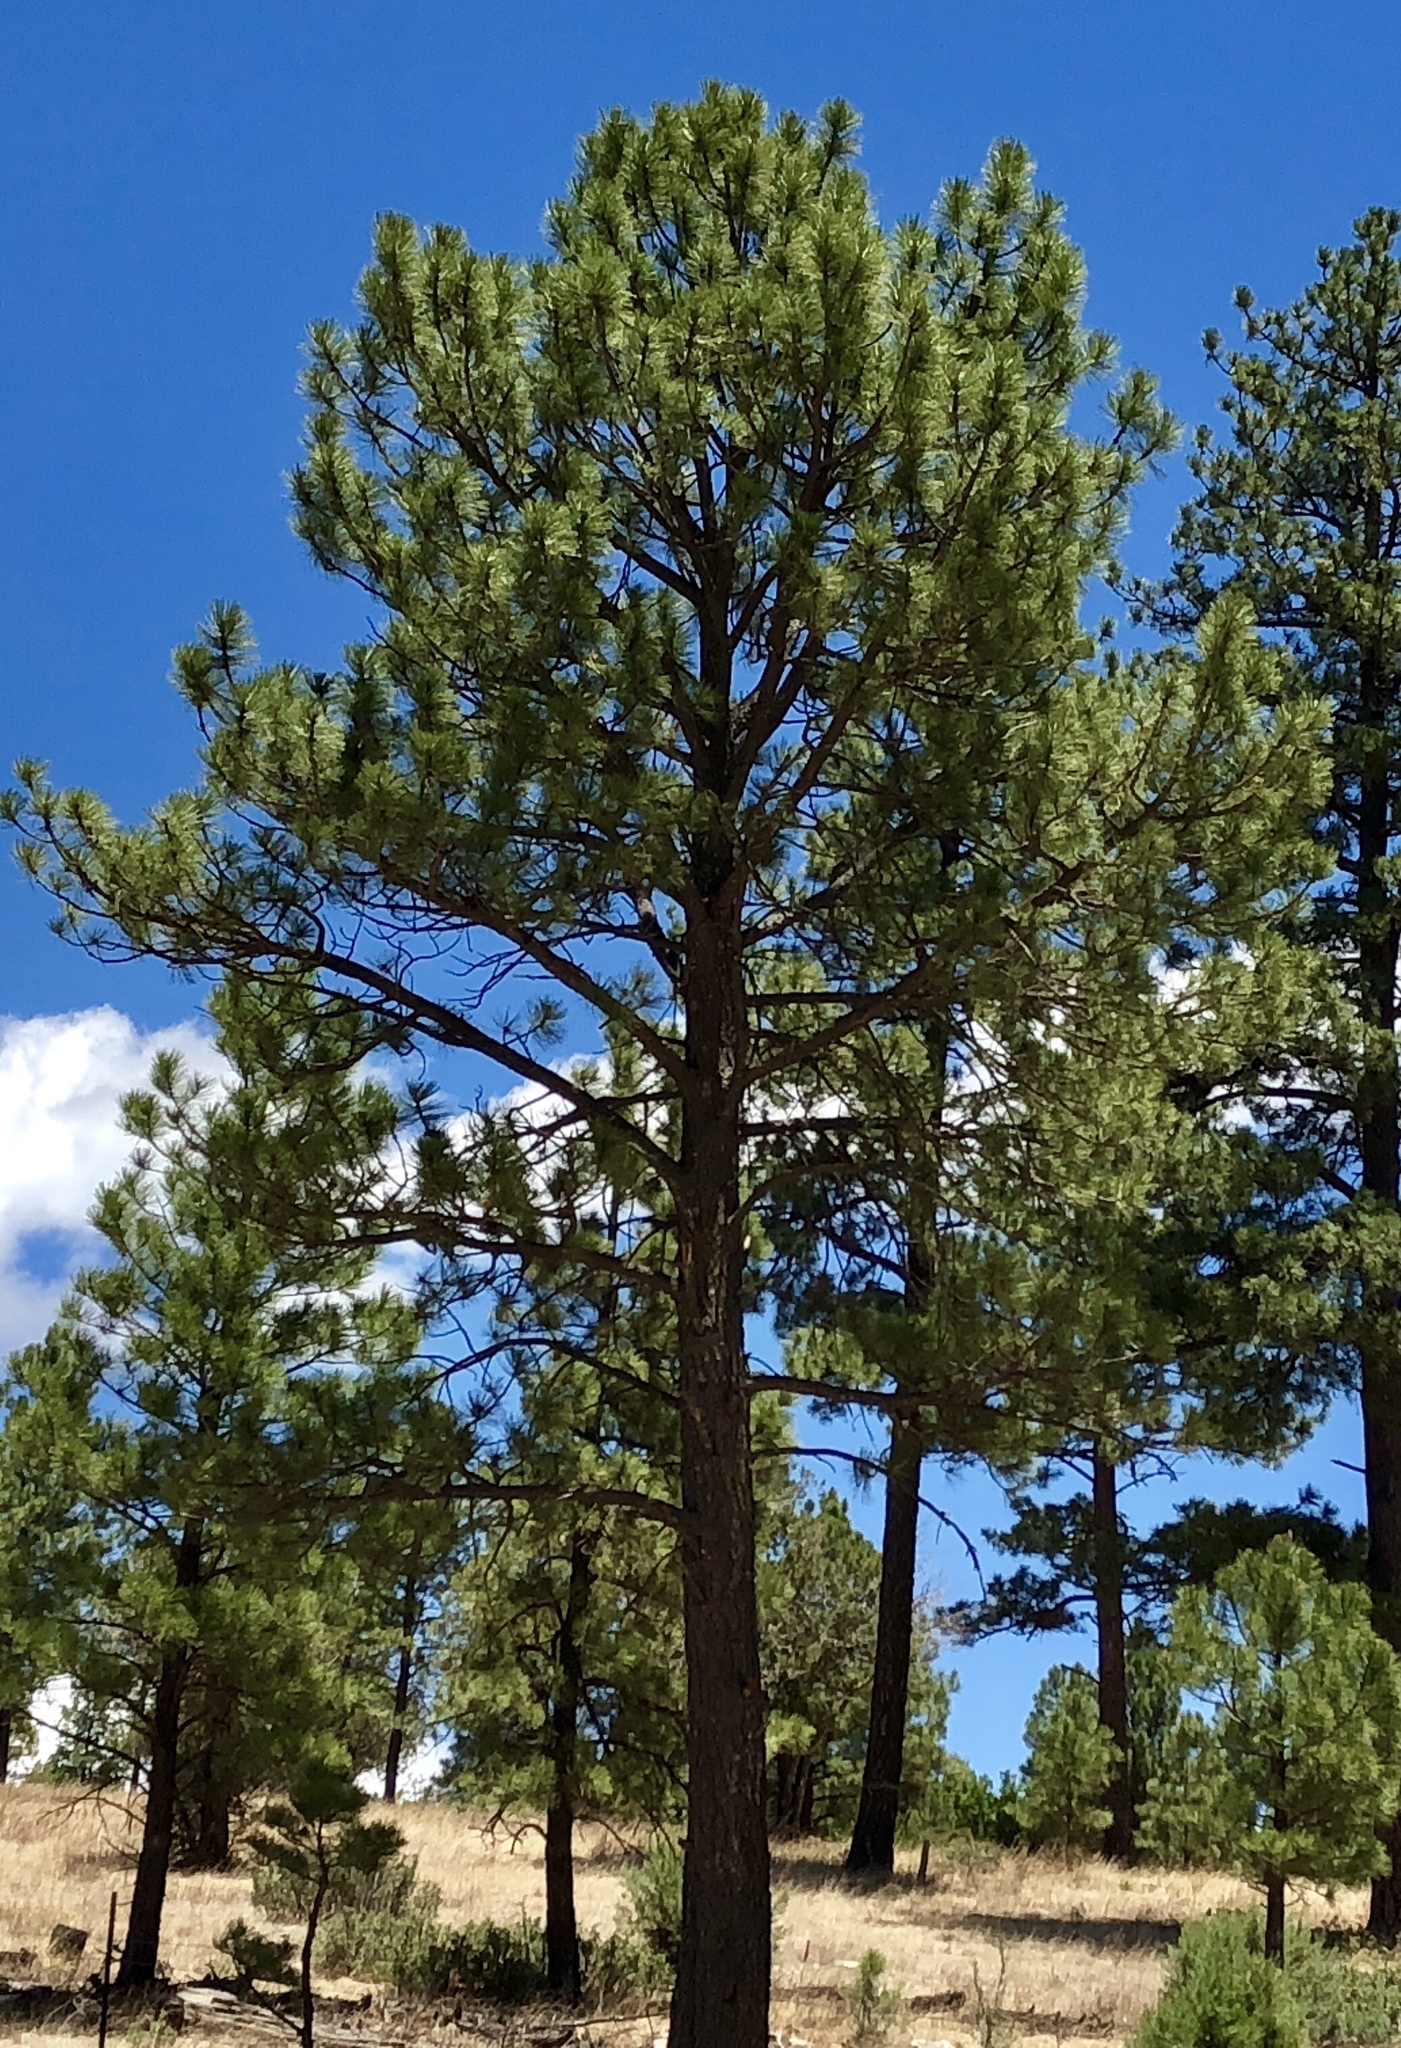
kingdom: Plantae
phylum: Tracheophyta
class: Pinopsida
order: Pinales
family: Pinaceae
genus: Pinus
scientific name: Pinus ponderosa
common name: Western yellow-pine
